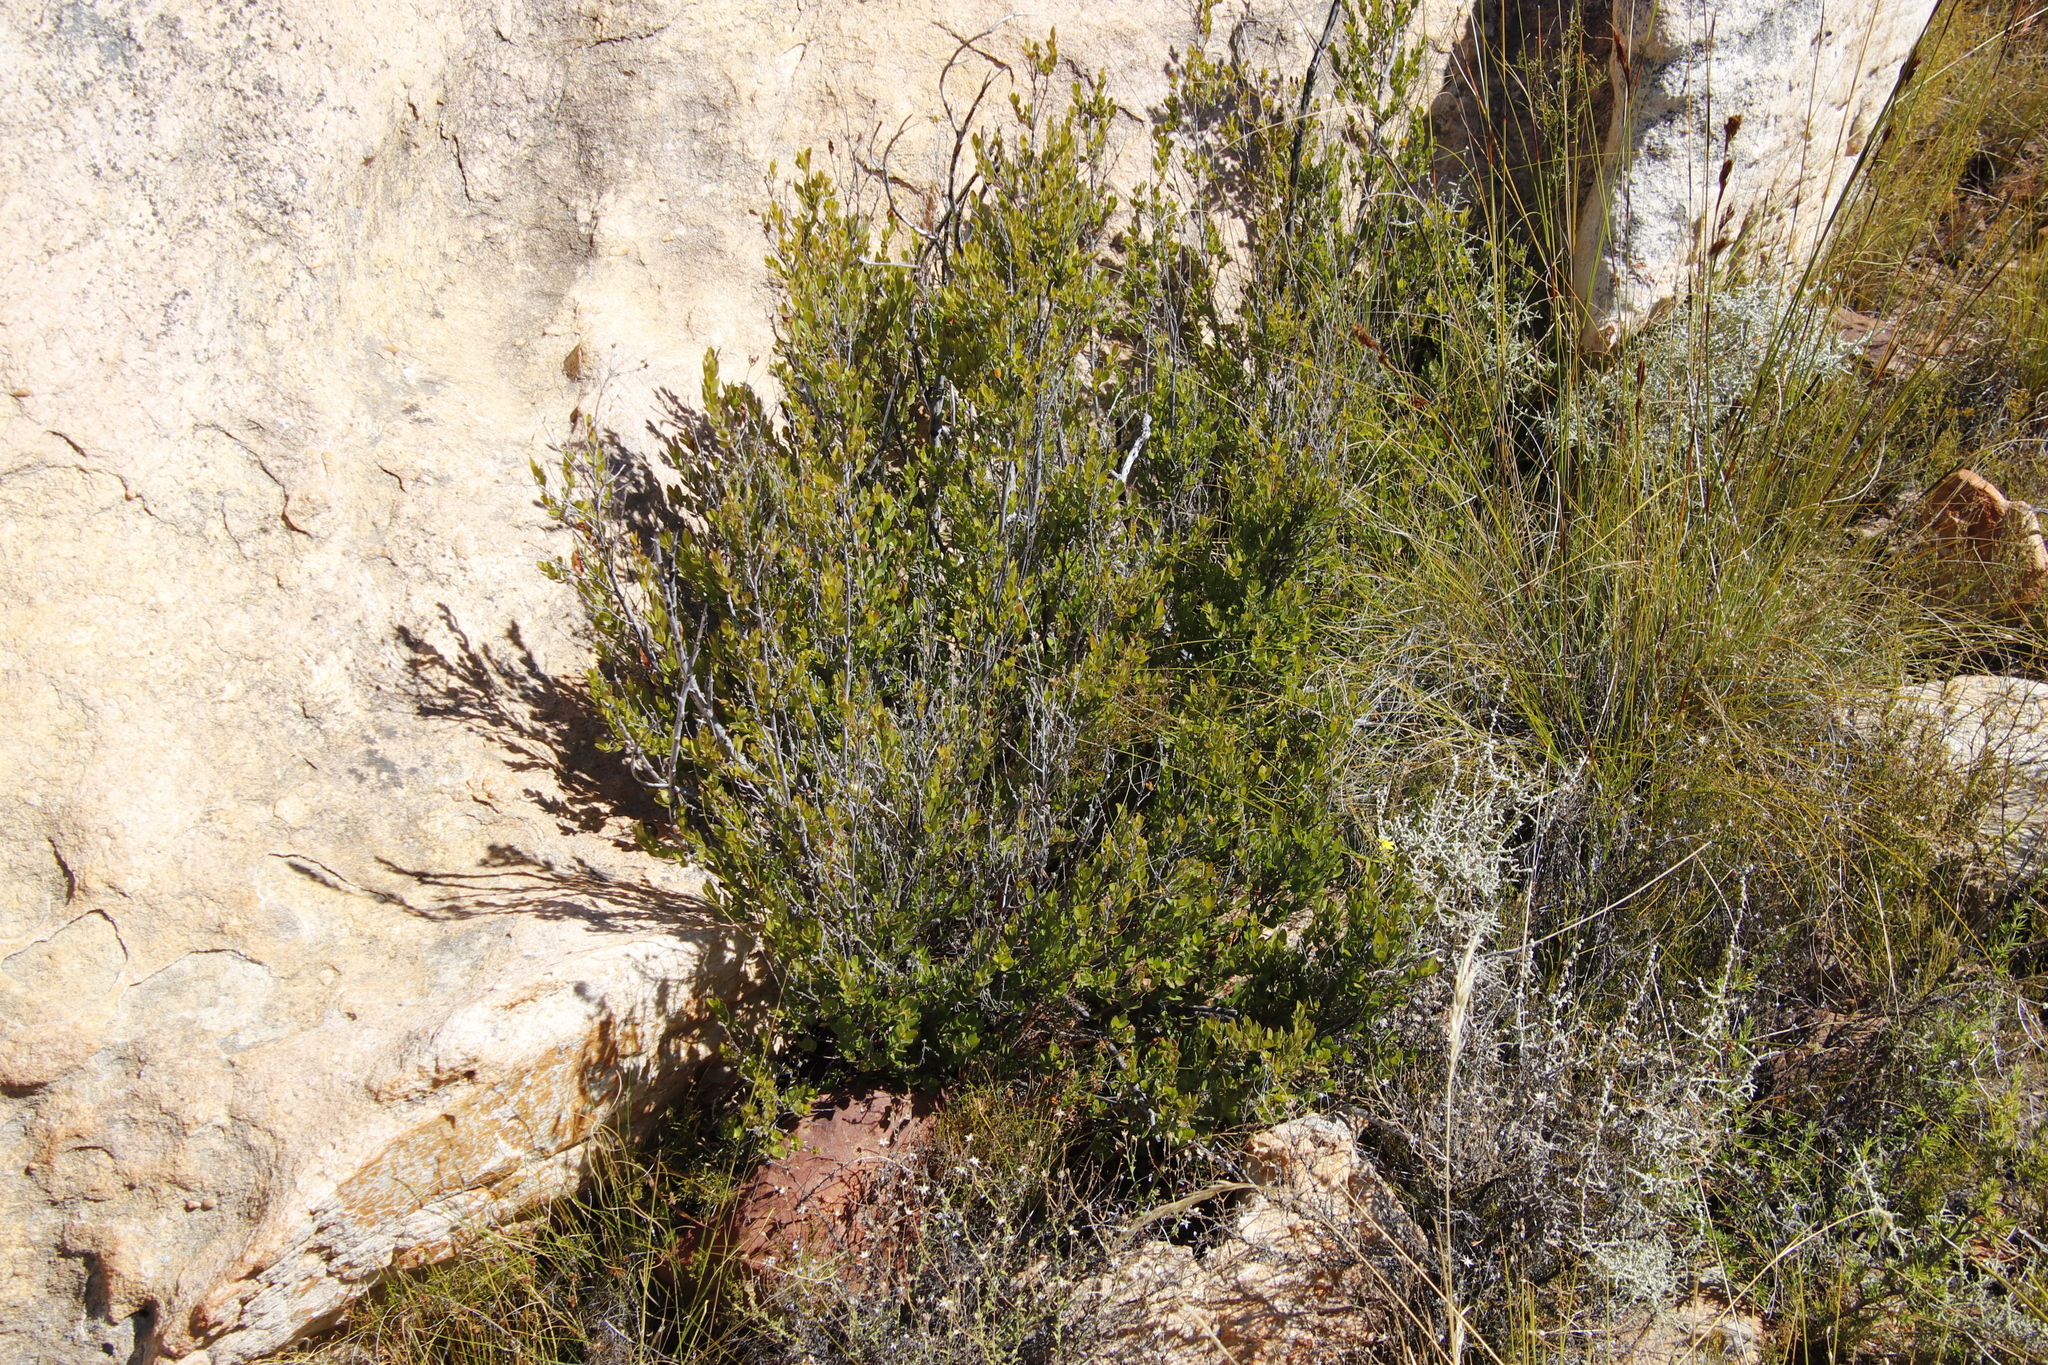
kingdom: Plantae
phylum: Tracheophyta
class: Magnoliopsida
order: Ericales
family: Ebenaceae
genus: Diospyros
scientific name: Diospyros glabra
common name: Fynbos star apple
